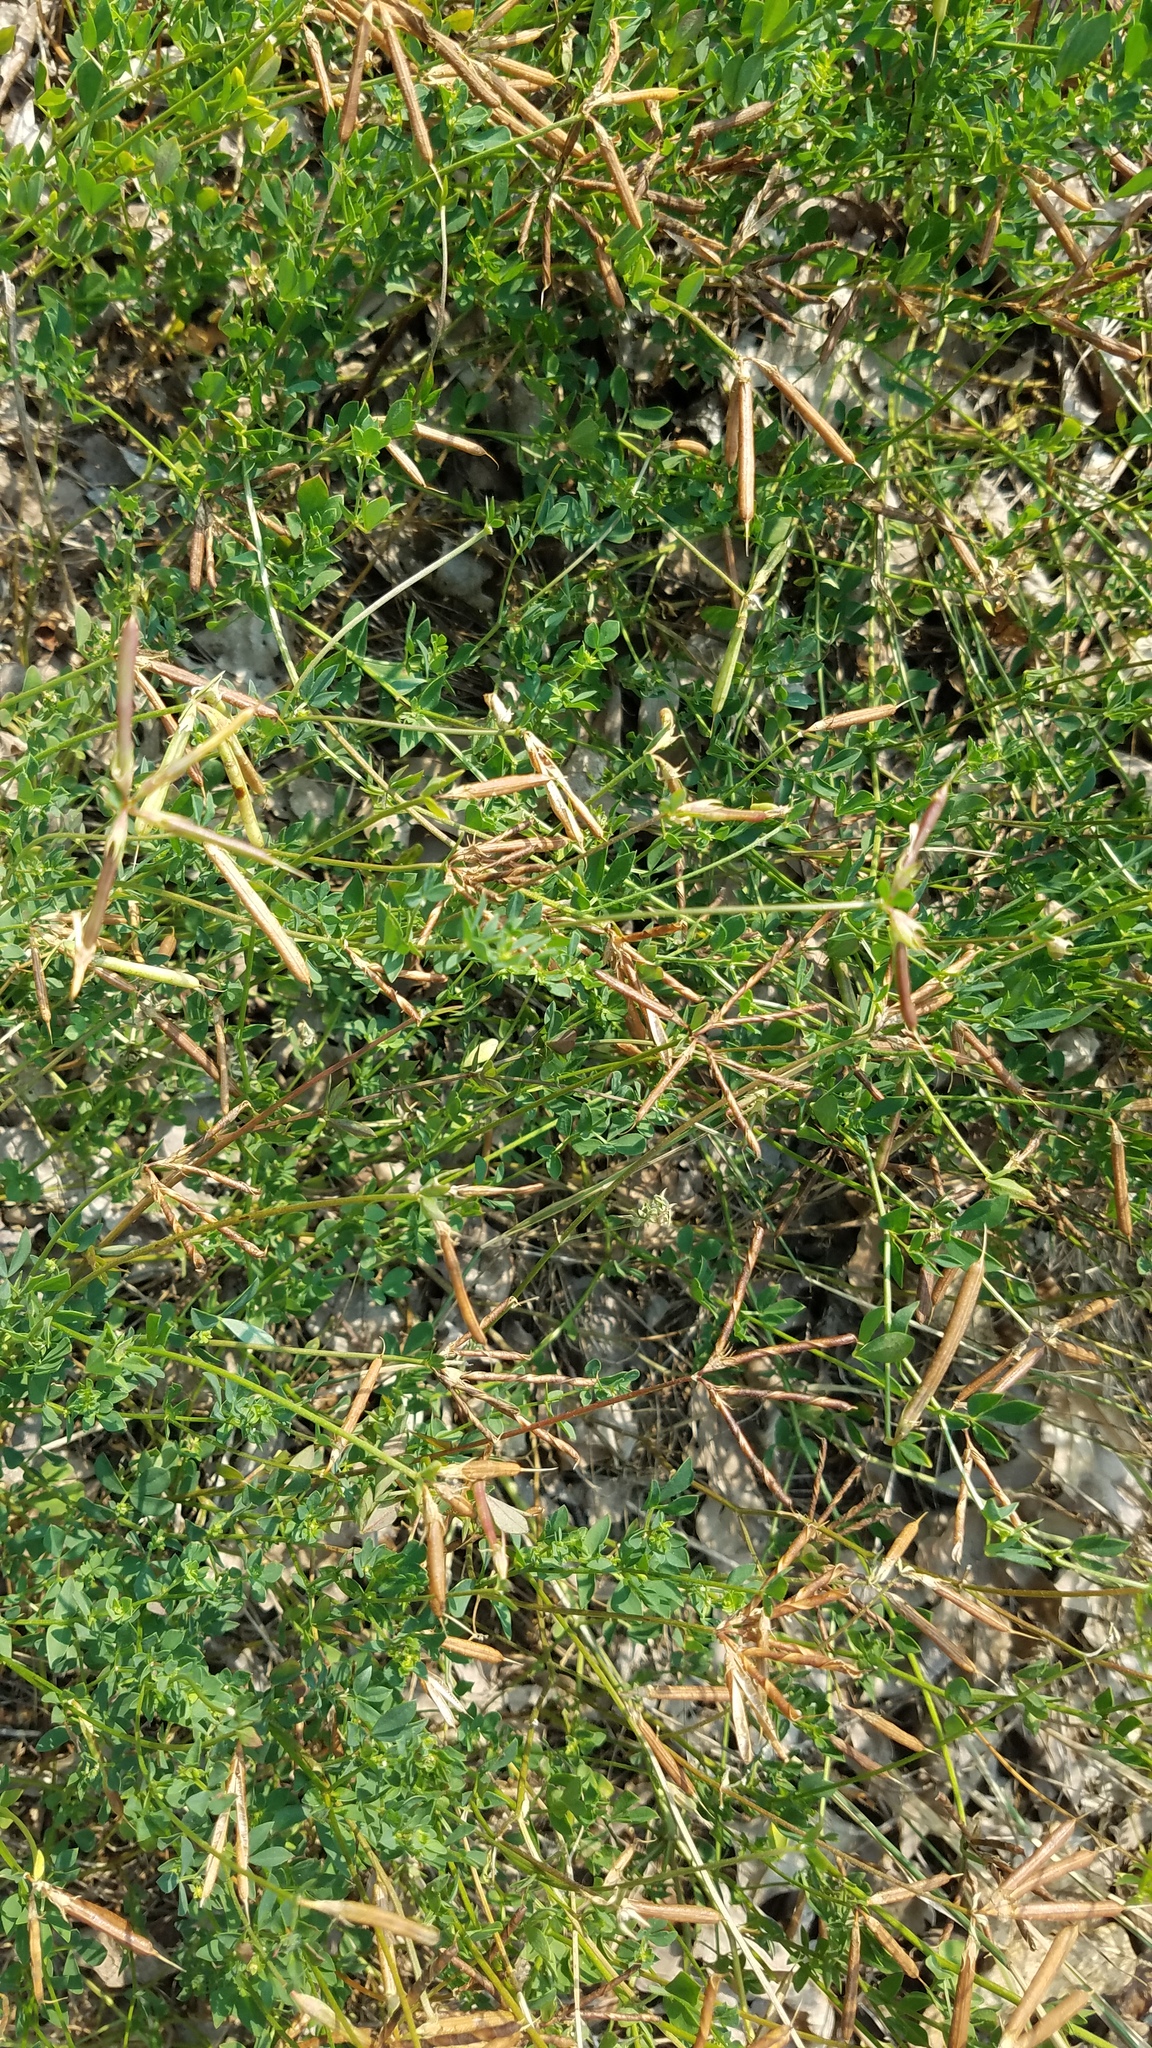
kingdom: Plantae
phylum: Tracheophyta
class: Magnoliopsida
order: Fabales
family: Fabaceae
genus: Lotus
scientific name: Lotus corniculatus
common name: Common bird's-foot-trefoil
